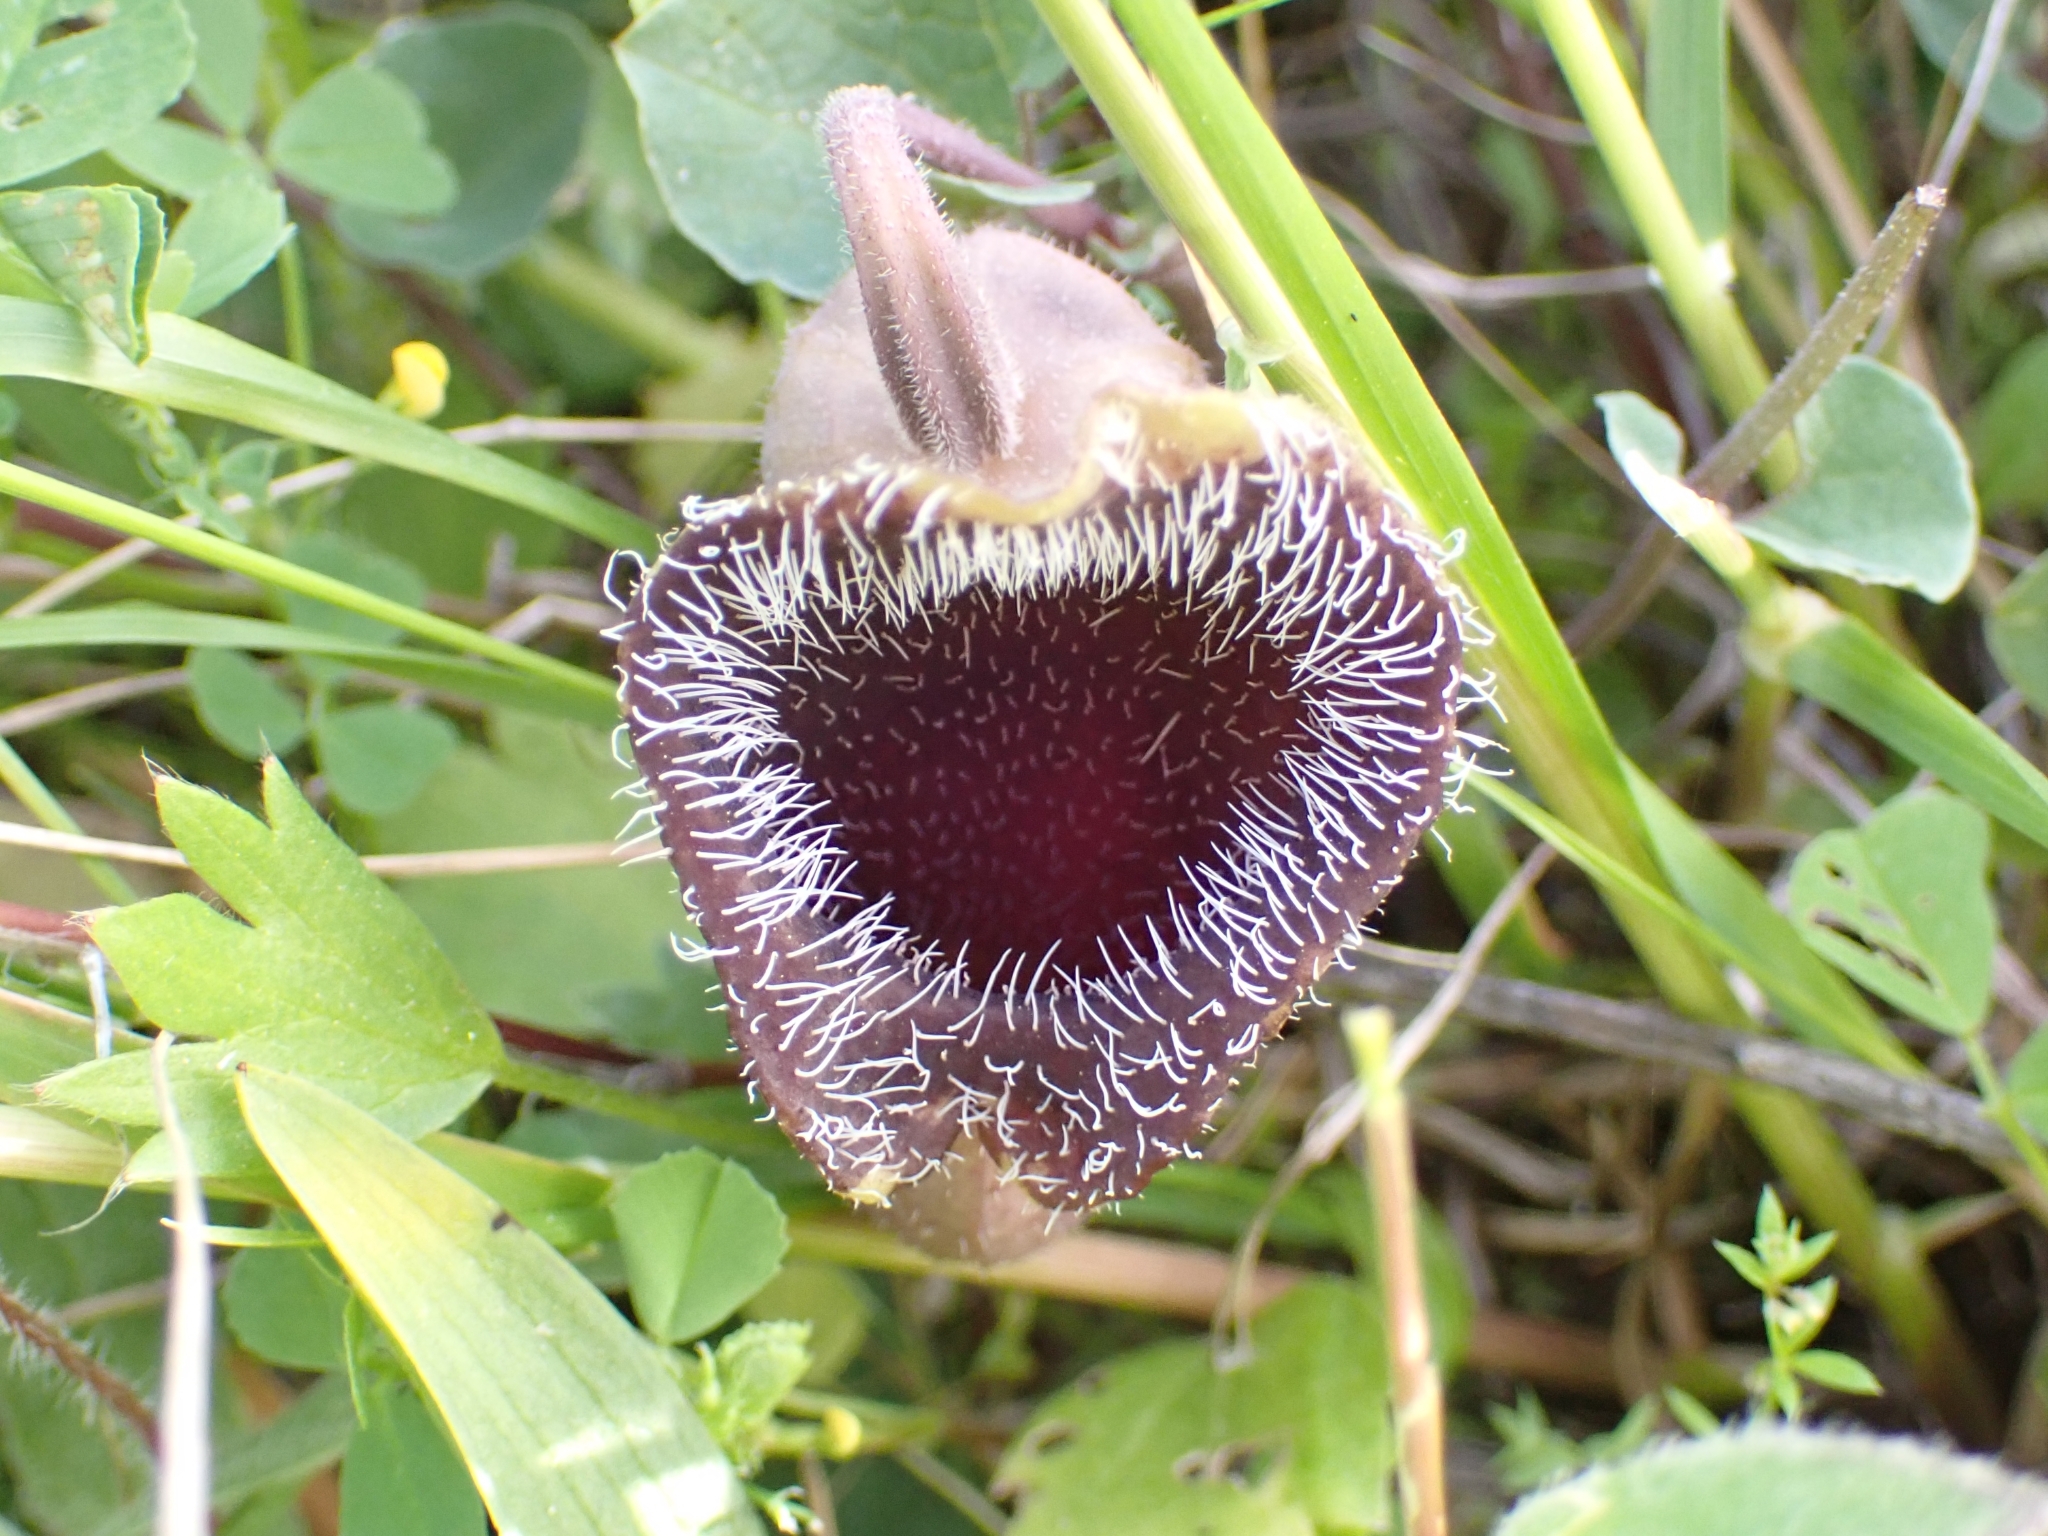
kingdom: Plantae
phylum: Tracheophyta
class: Magnoliopsida
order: Piperales
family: Aristolochiaceae
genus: Aristolochia
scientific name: Aristolochia cretica
